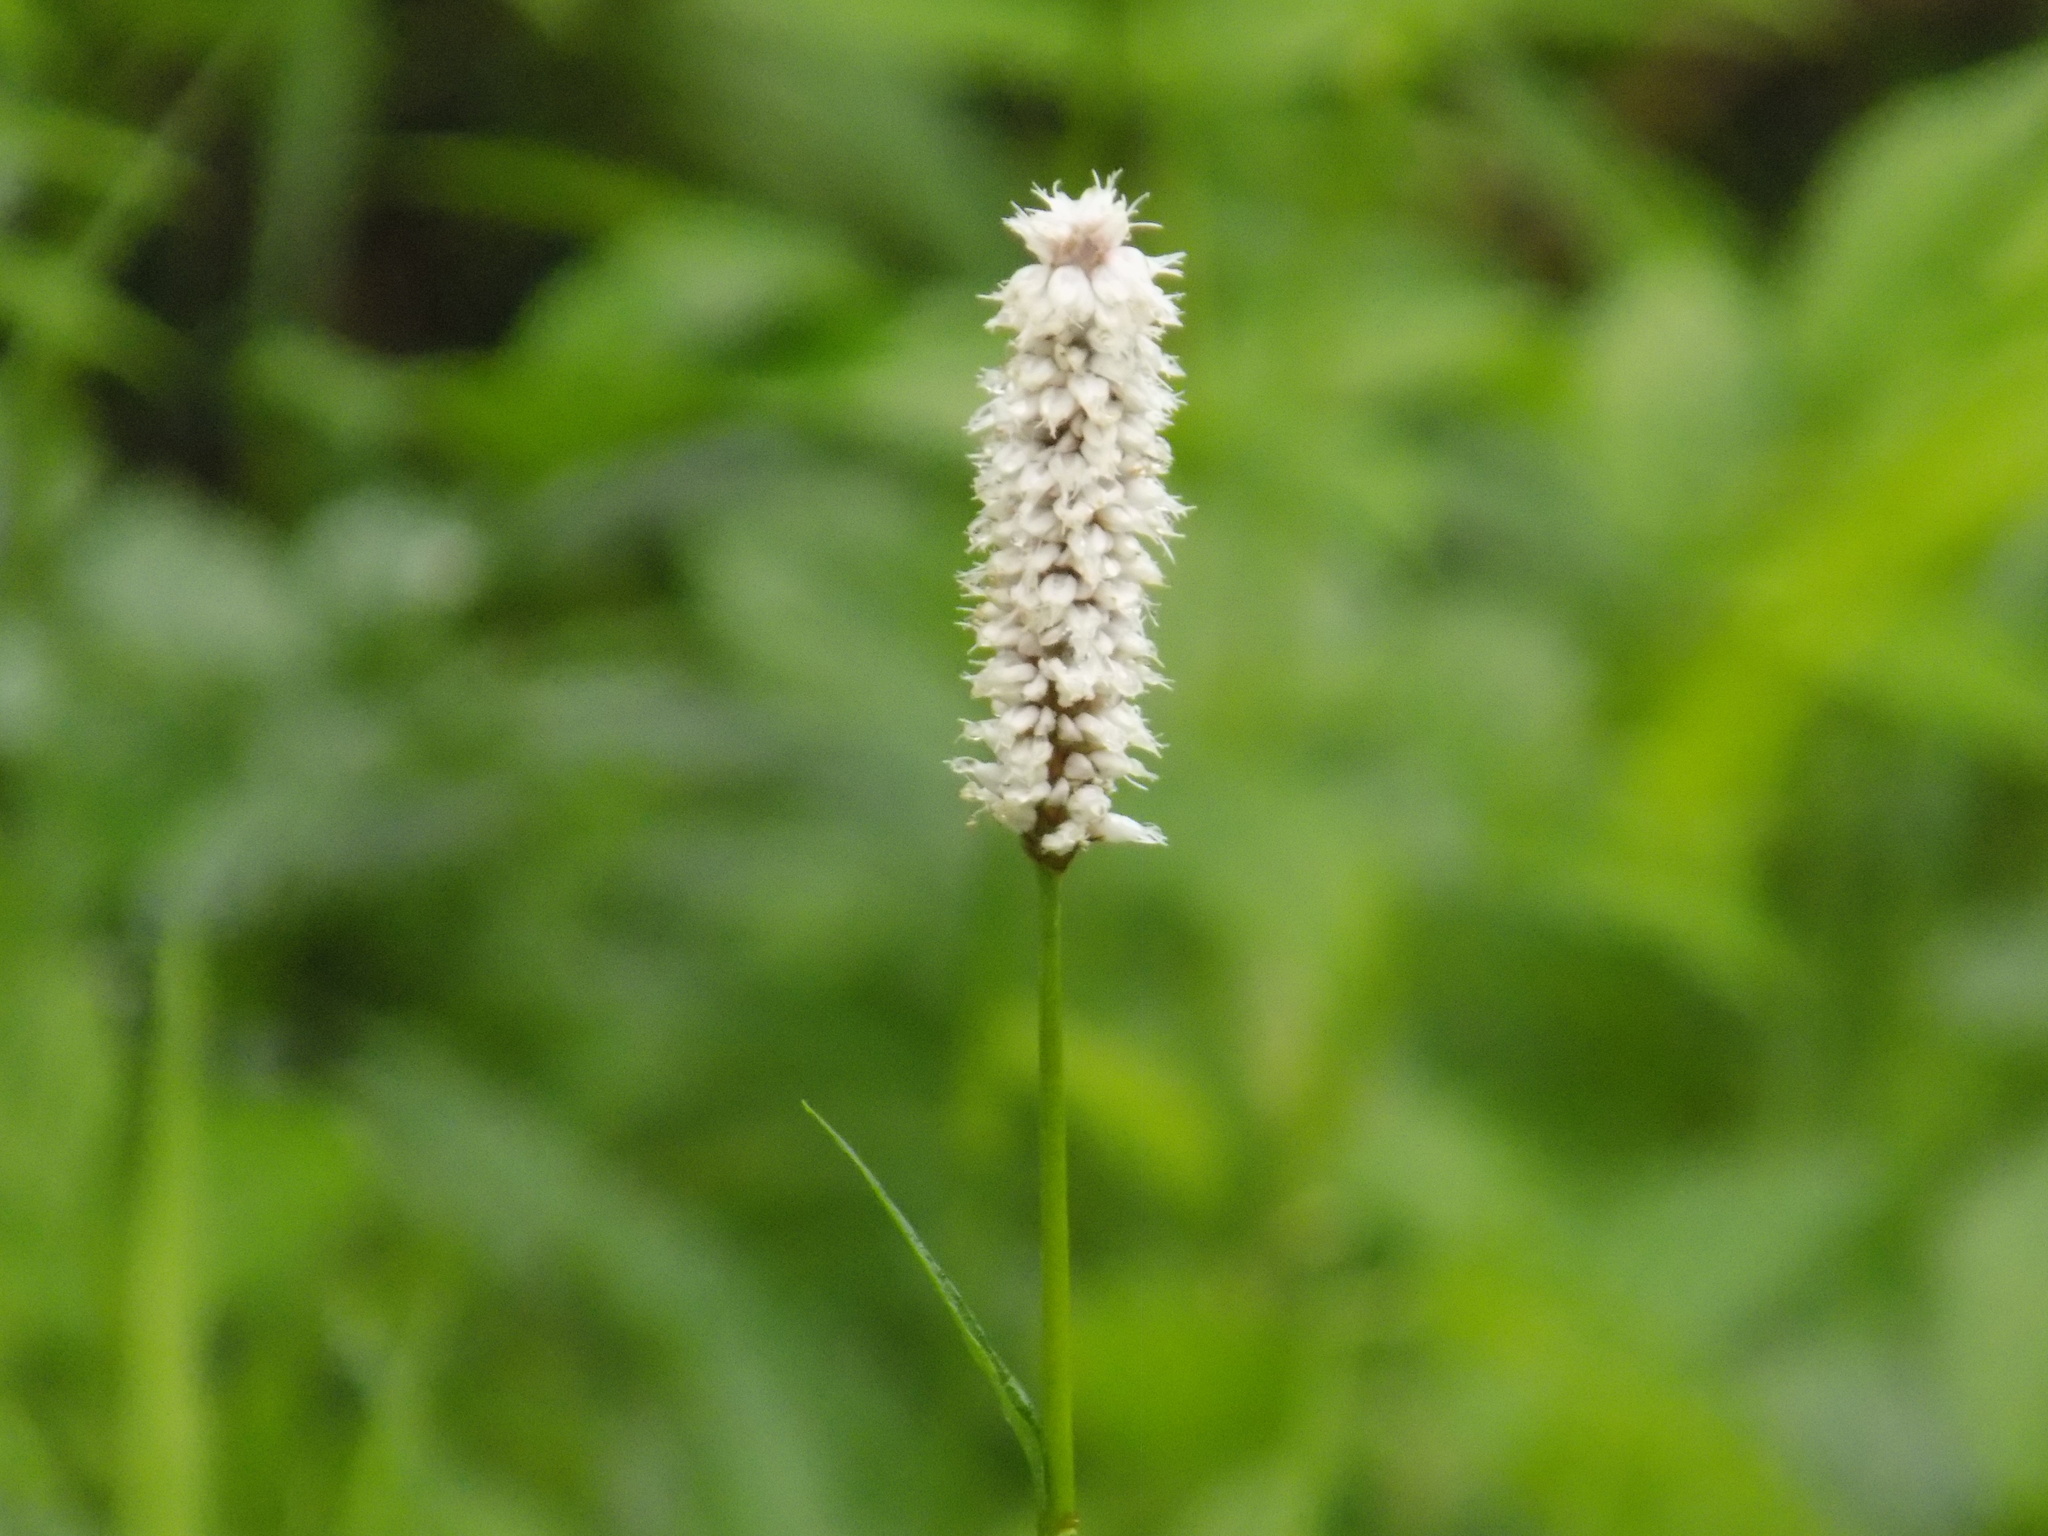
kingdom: Plantae
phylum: Tracheophyta
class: Magnoliopsida
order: Caryophyllales
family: Polygonaceae
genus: Bistorta
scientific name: Bistorta officinalis
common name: Common bistort
